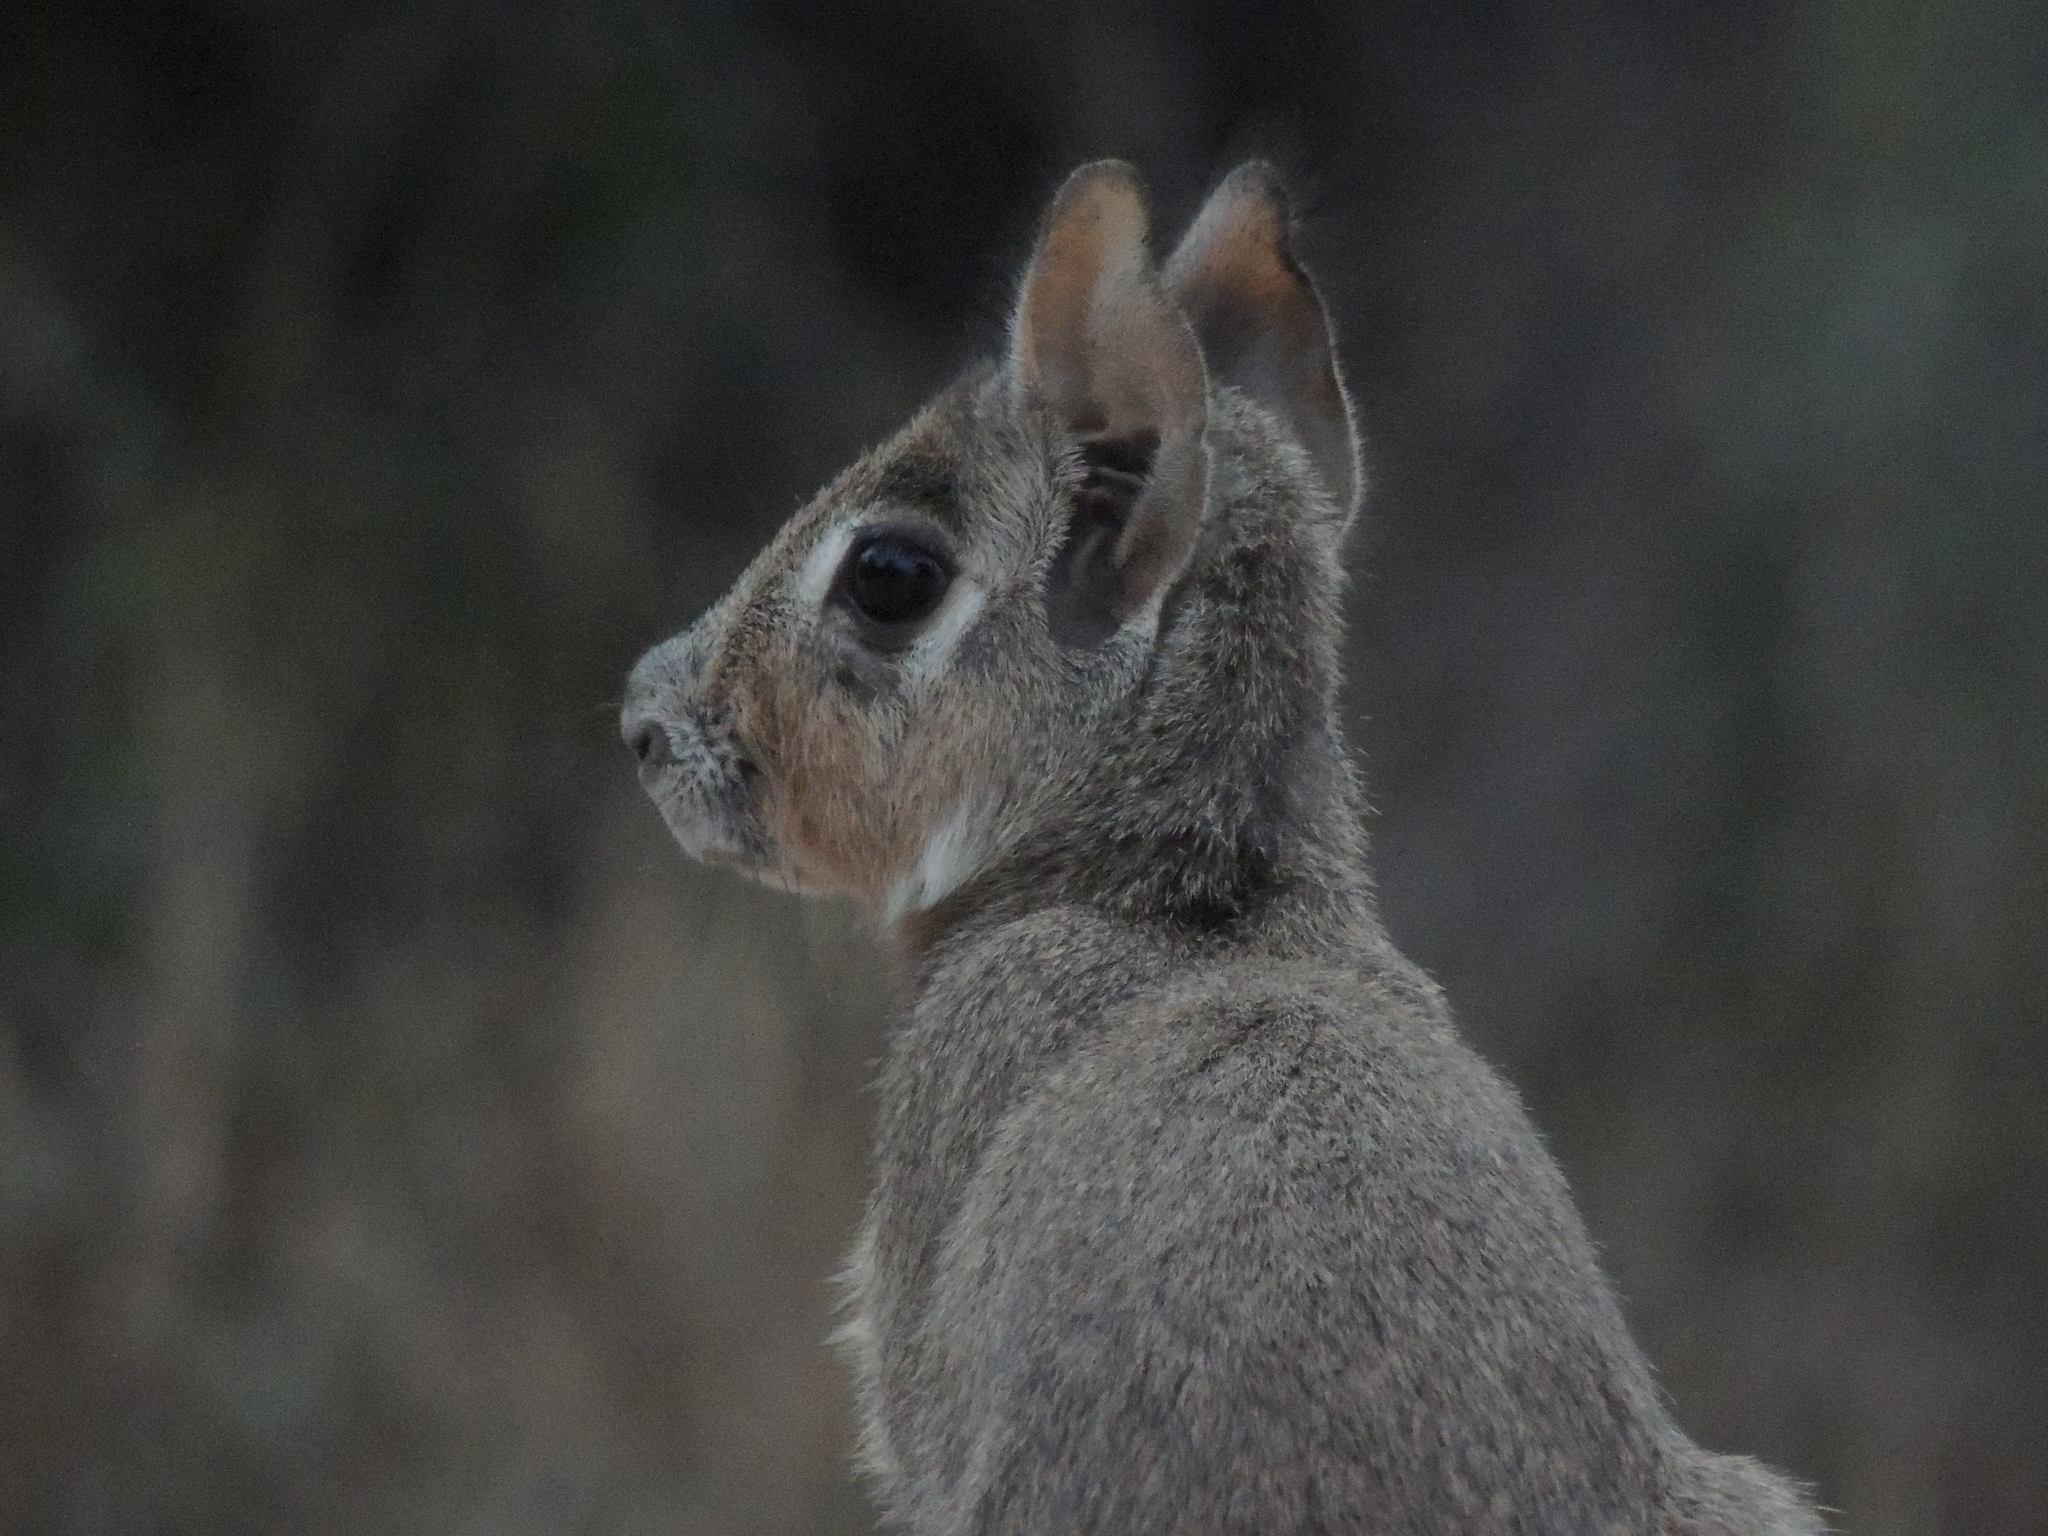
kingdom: Animalia
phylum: Chordata
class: Mammalia
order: Rodentia
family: Caviidae
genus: Dolichotis
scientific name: Dolichotis Pediolagus salinicola
